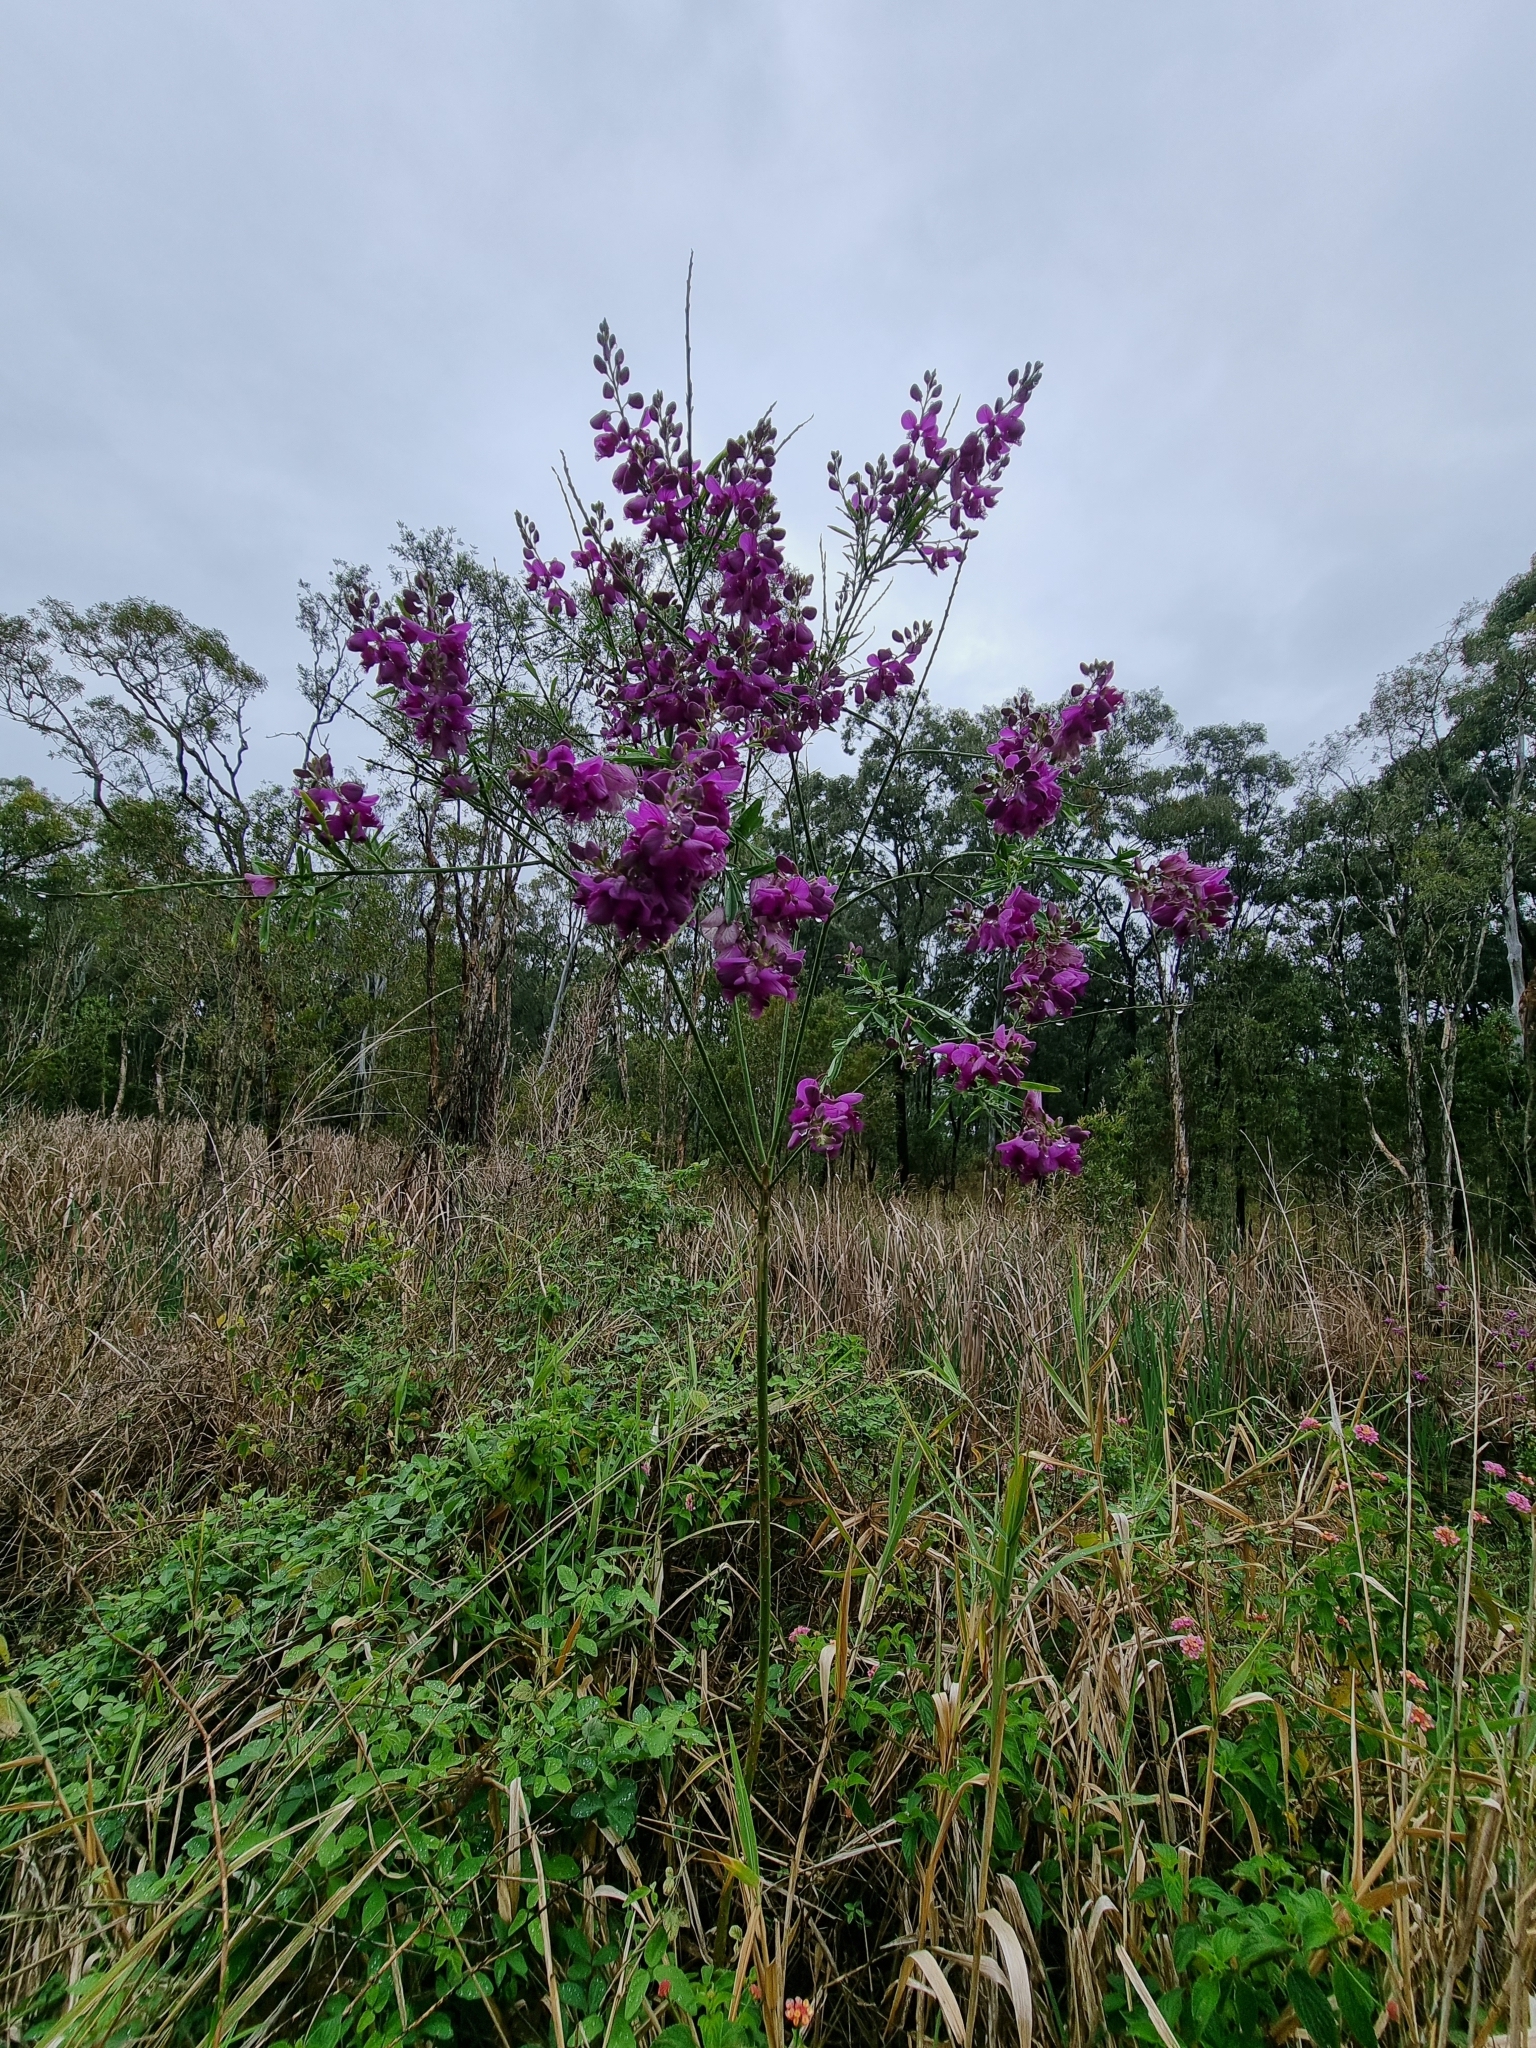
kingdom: Plantae
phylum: Tracheophyta
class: Magnoliopsida
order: Fabales
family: Polygalaceae
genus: Polygala
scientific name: Polygala virgata
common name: Milkwort
